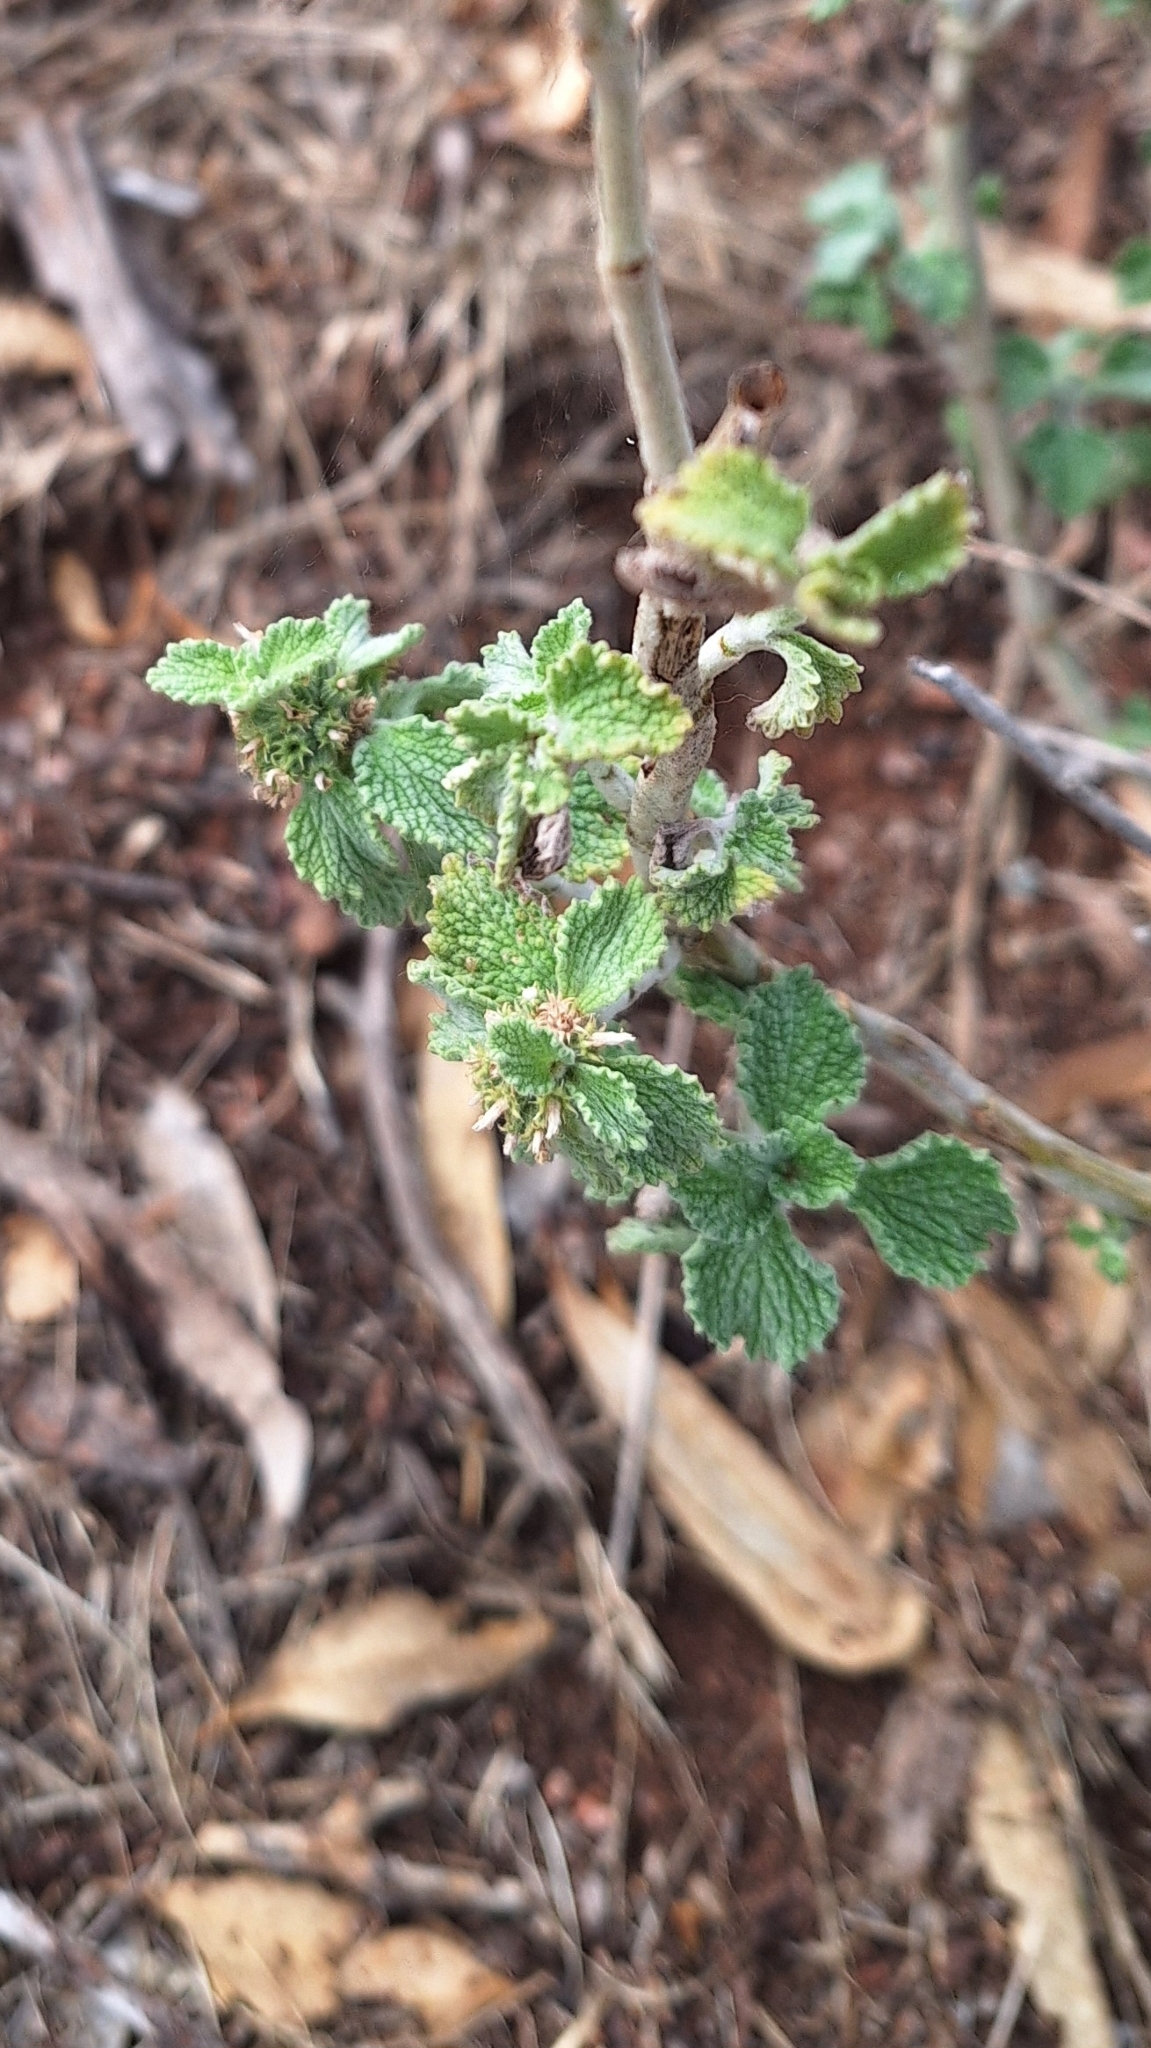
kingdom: Plantae
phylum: Tracheophyta
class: Magnoliopsida
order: Lamiales
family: Lamiaceae
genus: Marrubium
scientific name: Marrubium vulgare
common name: Horehound
